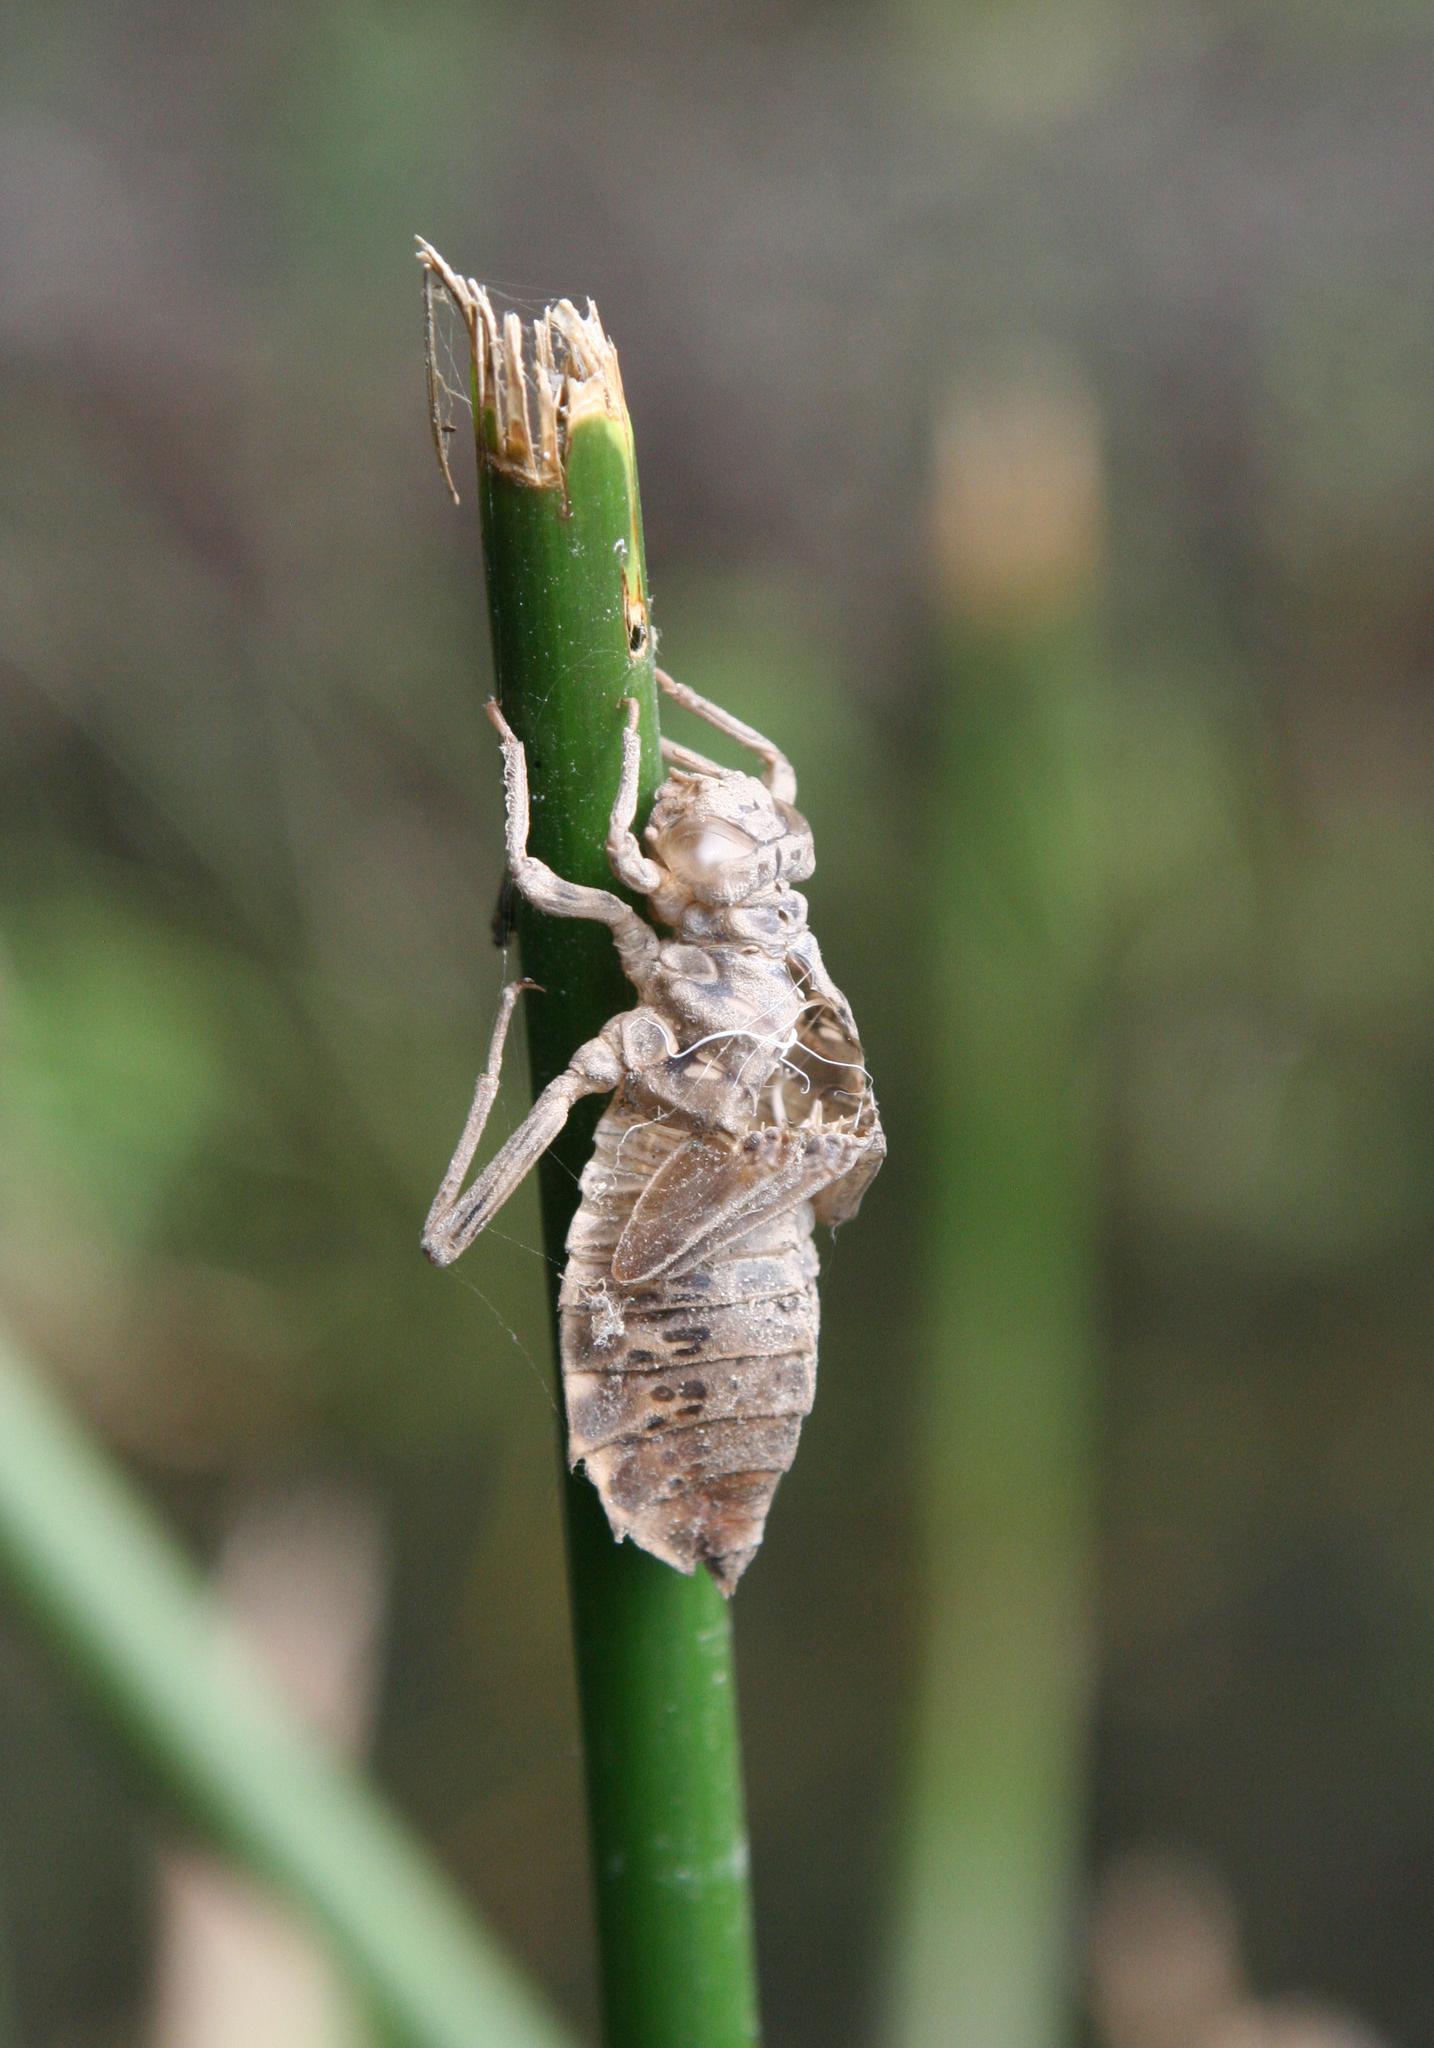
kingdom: Animalia
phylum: Arthropoda
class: Insecta
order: Odonata
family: Gomphidae
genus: Lindenia
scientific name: Lindenia tetraphylla
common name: Bladetail
